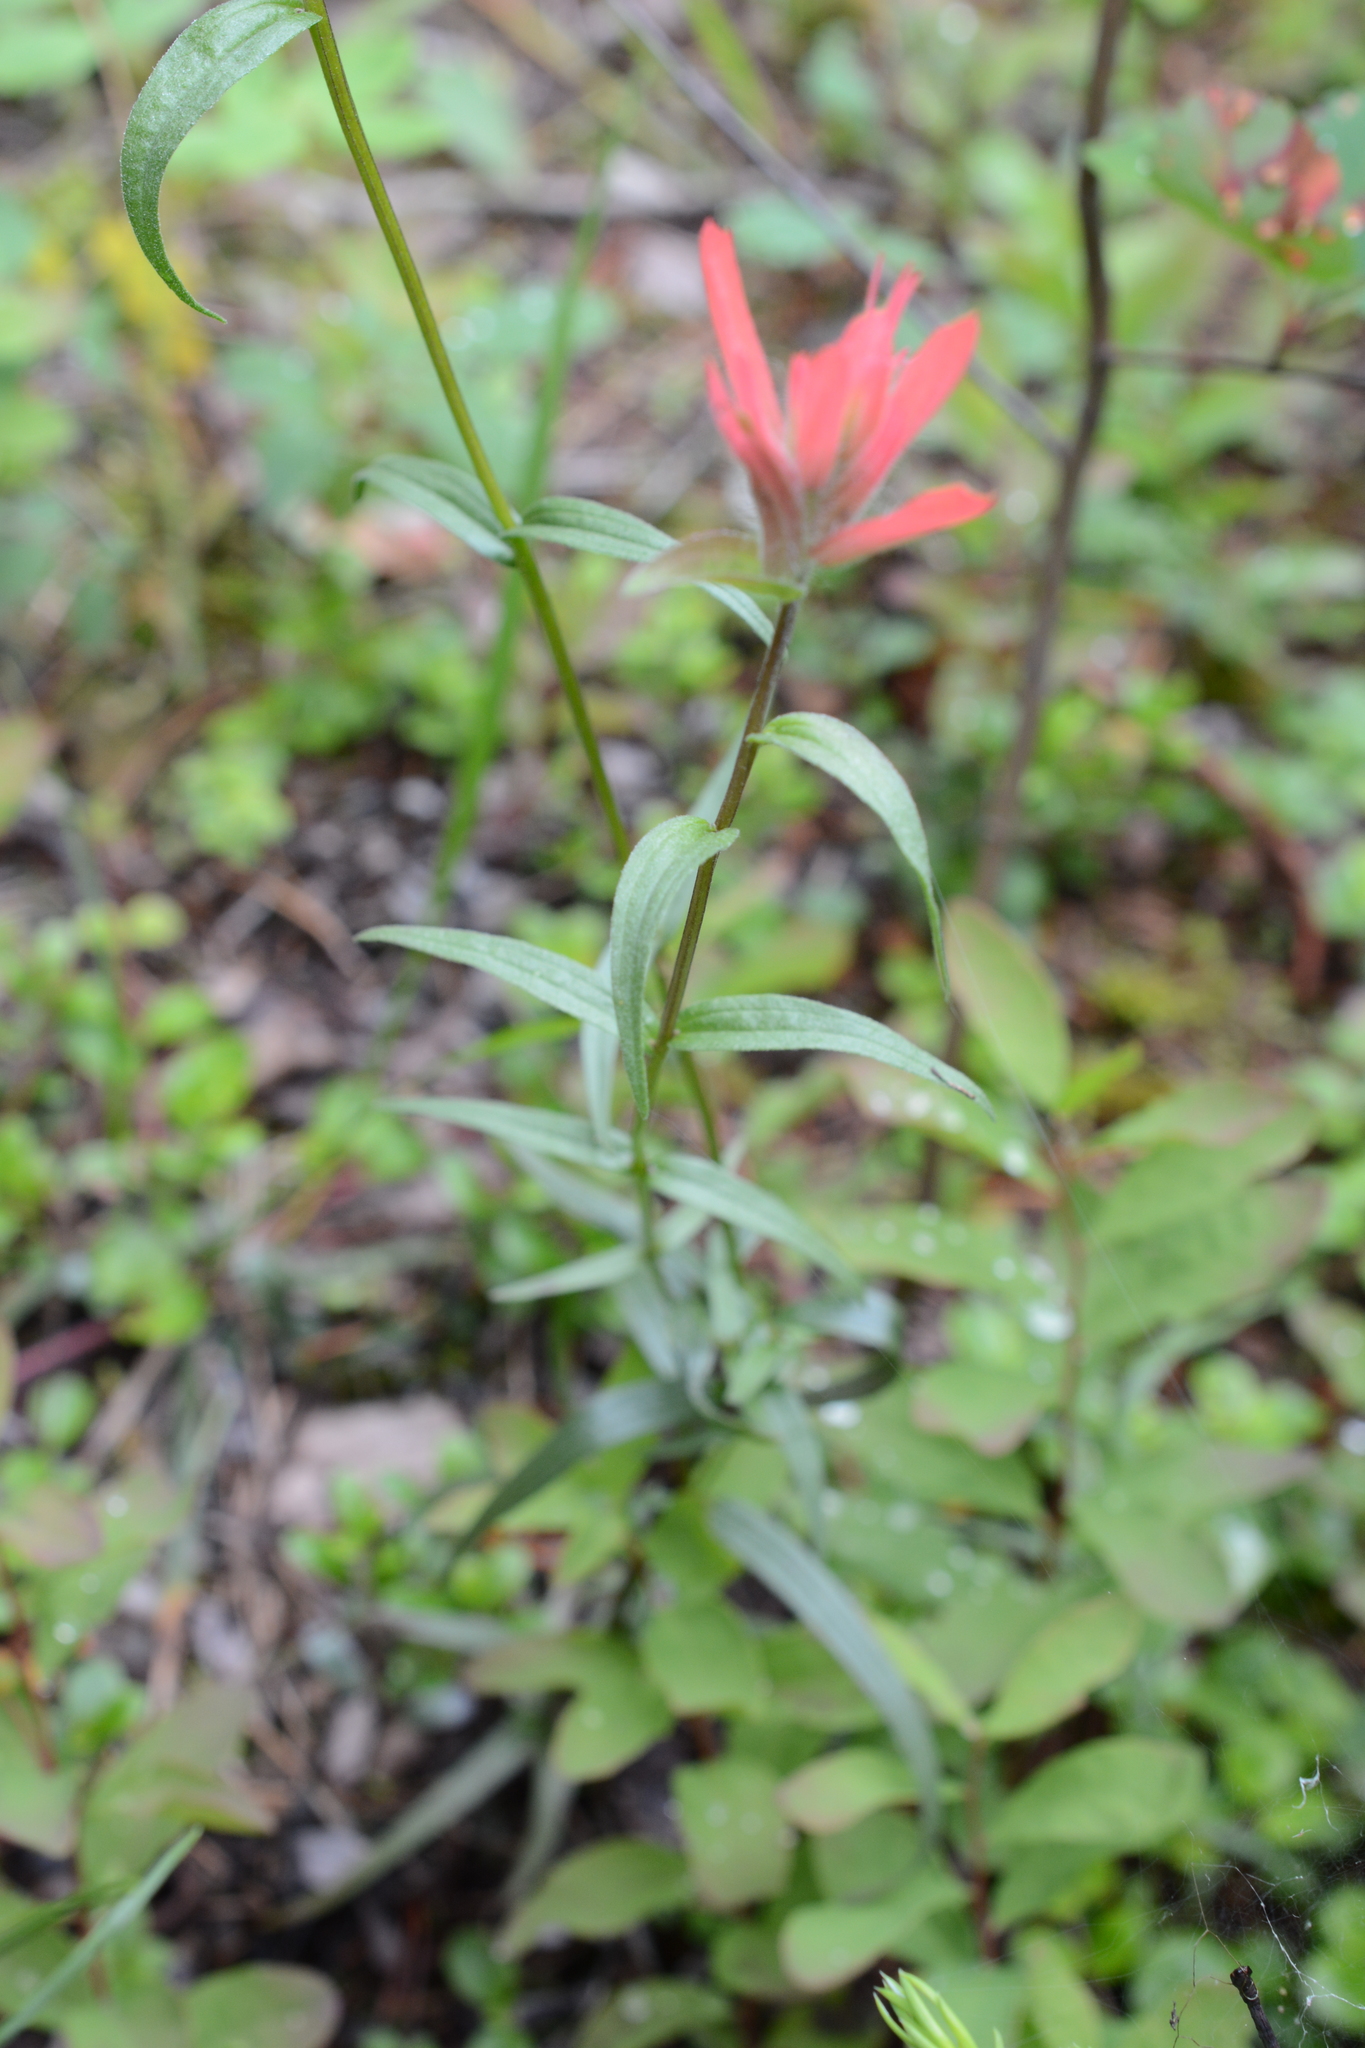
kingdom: Plantae
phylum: Tracheophyta
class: Magnoliopsida
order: Lamiales
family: Orobanchaceae
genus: Castilleja
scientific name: Castilleja miniata
